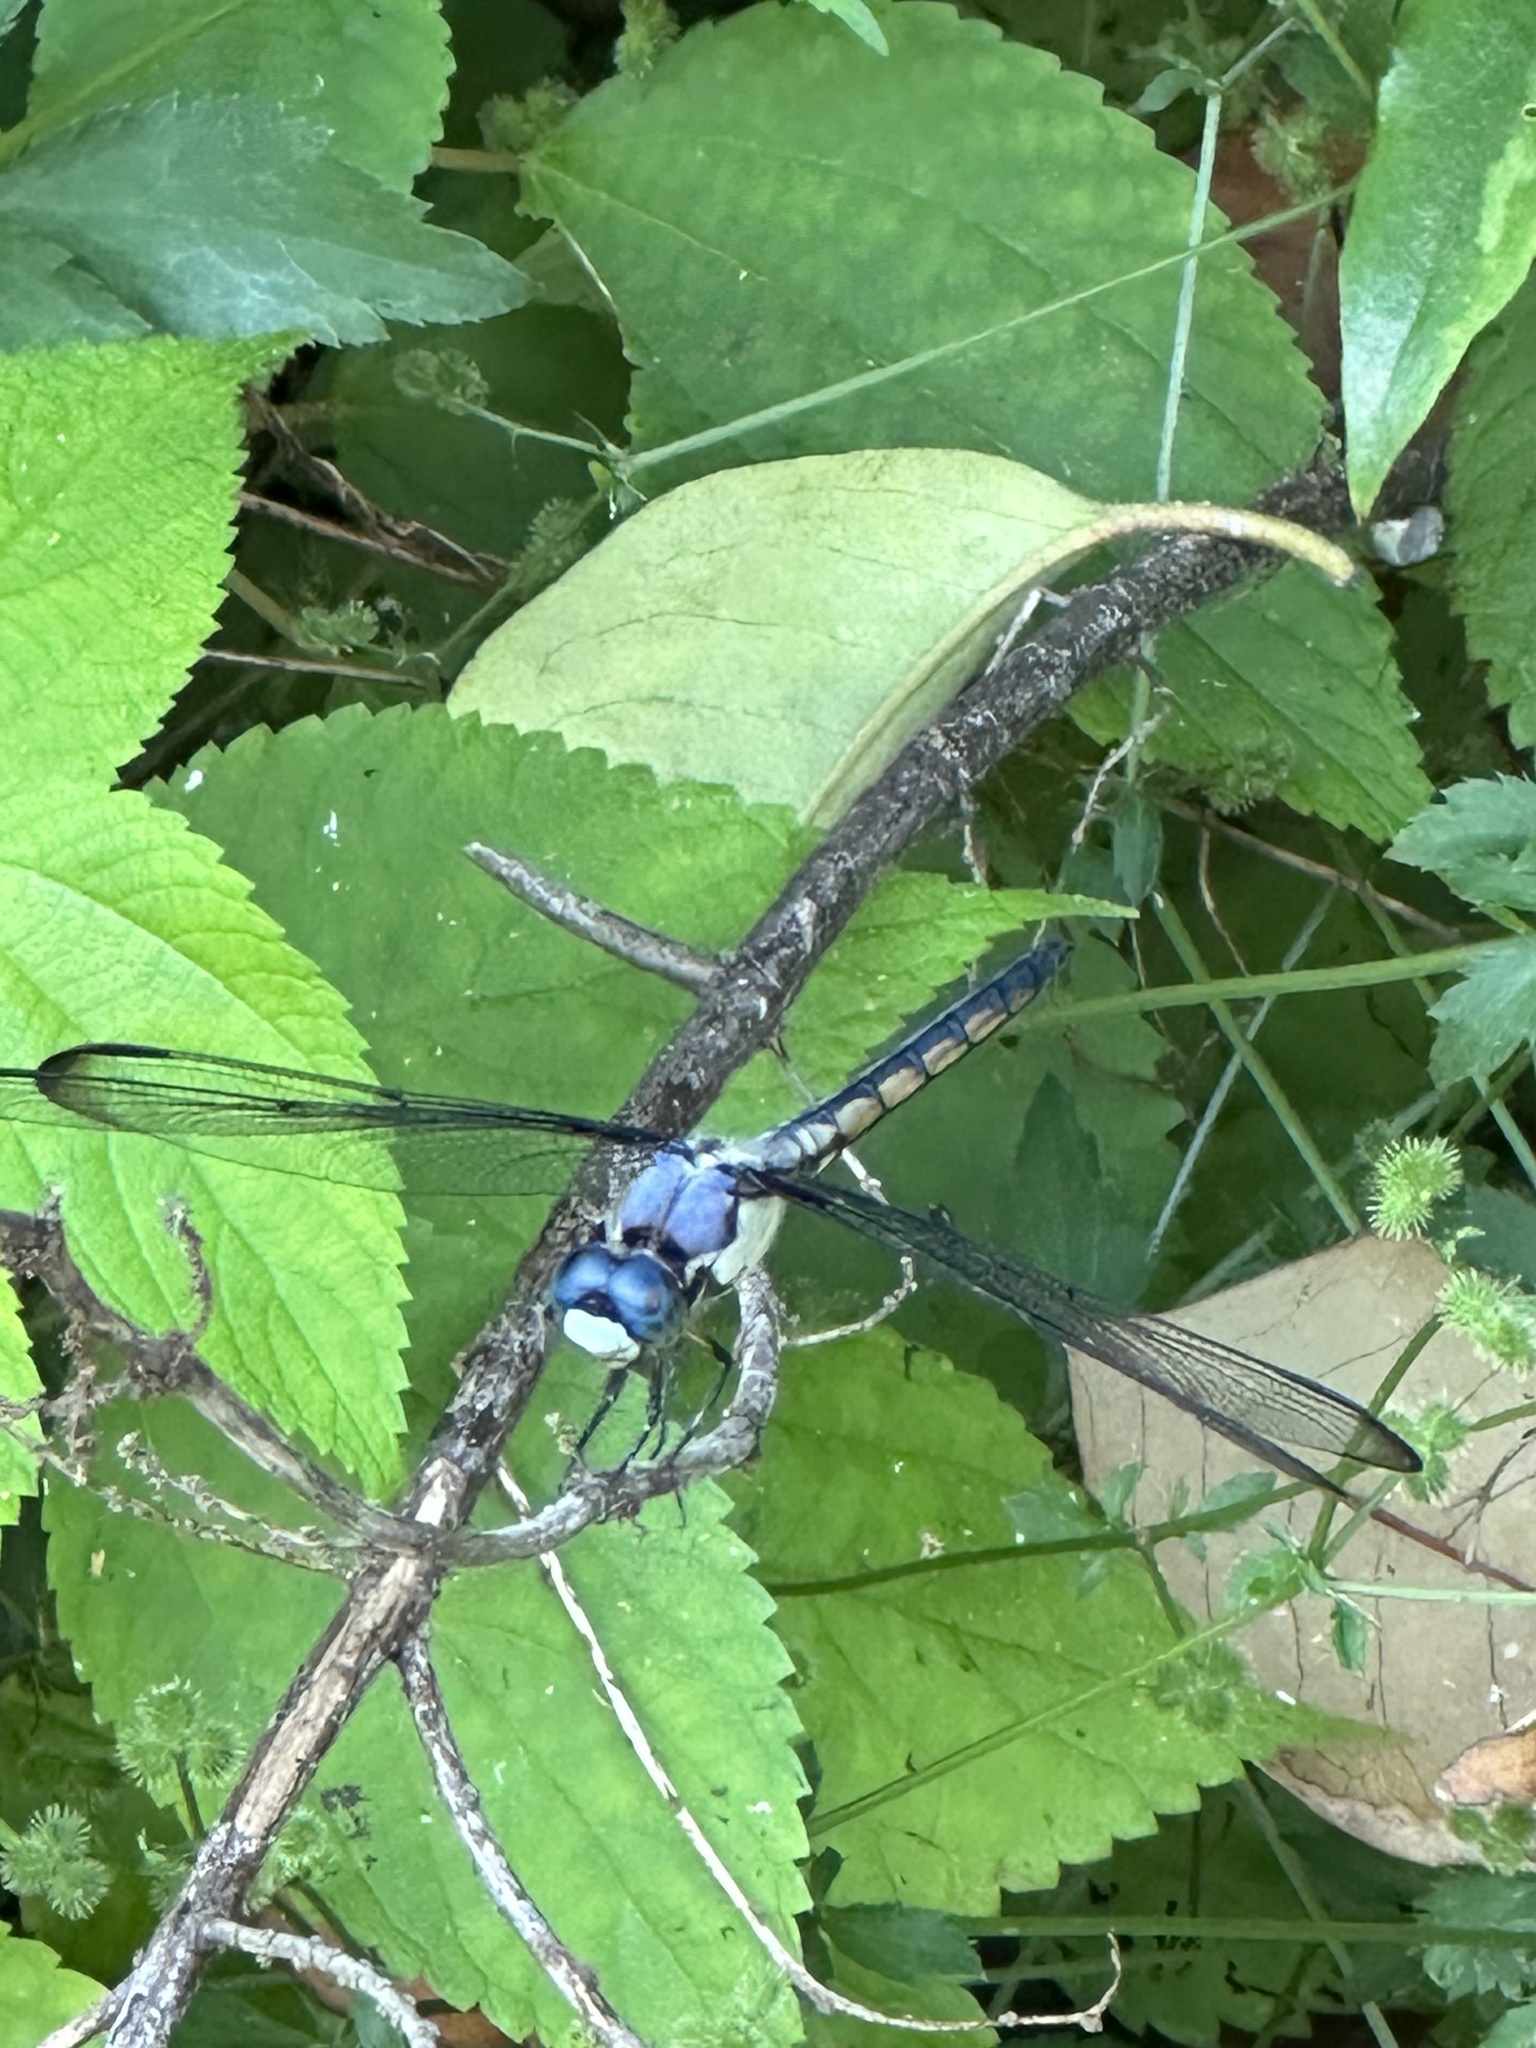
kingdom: Animalia
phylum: Arthropoda
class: Insecta
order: Odonata
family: Libellulidae
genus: Libellula
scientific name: Libellula vibrans
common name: Great blue skimmer
